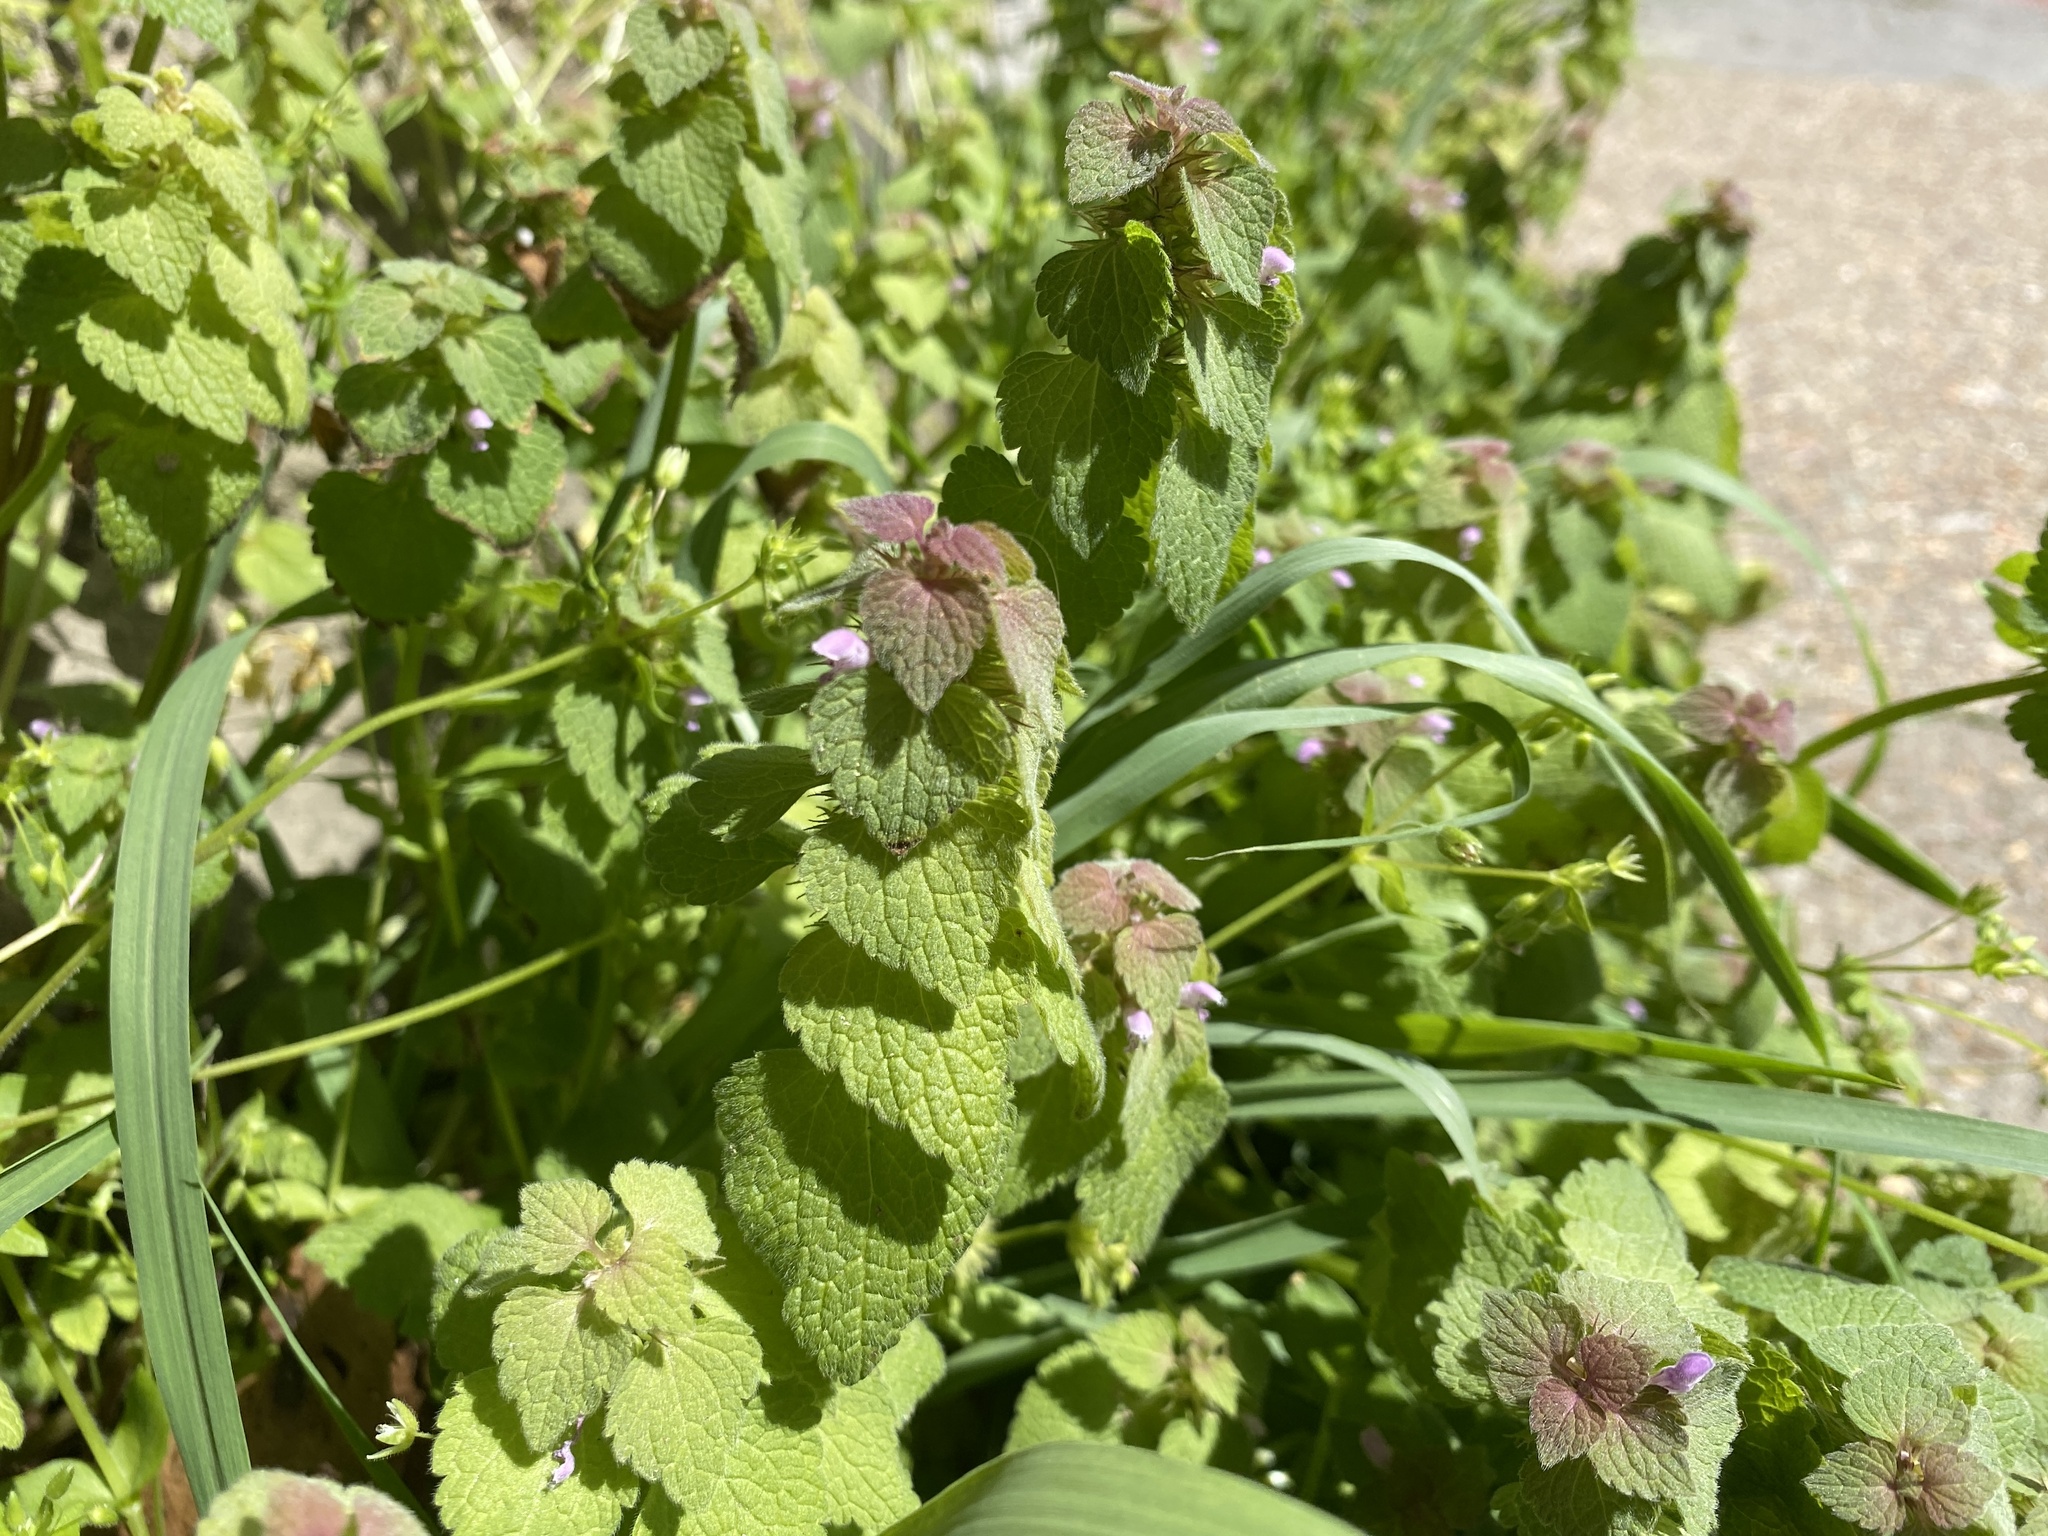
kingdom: Plantae
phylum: Tracheophyta
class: Magnoliopsida
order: Lamiales
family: Lamiaceae
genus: Lamium
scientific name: Lamium purpureum
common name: Red dead-nettle
